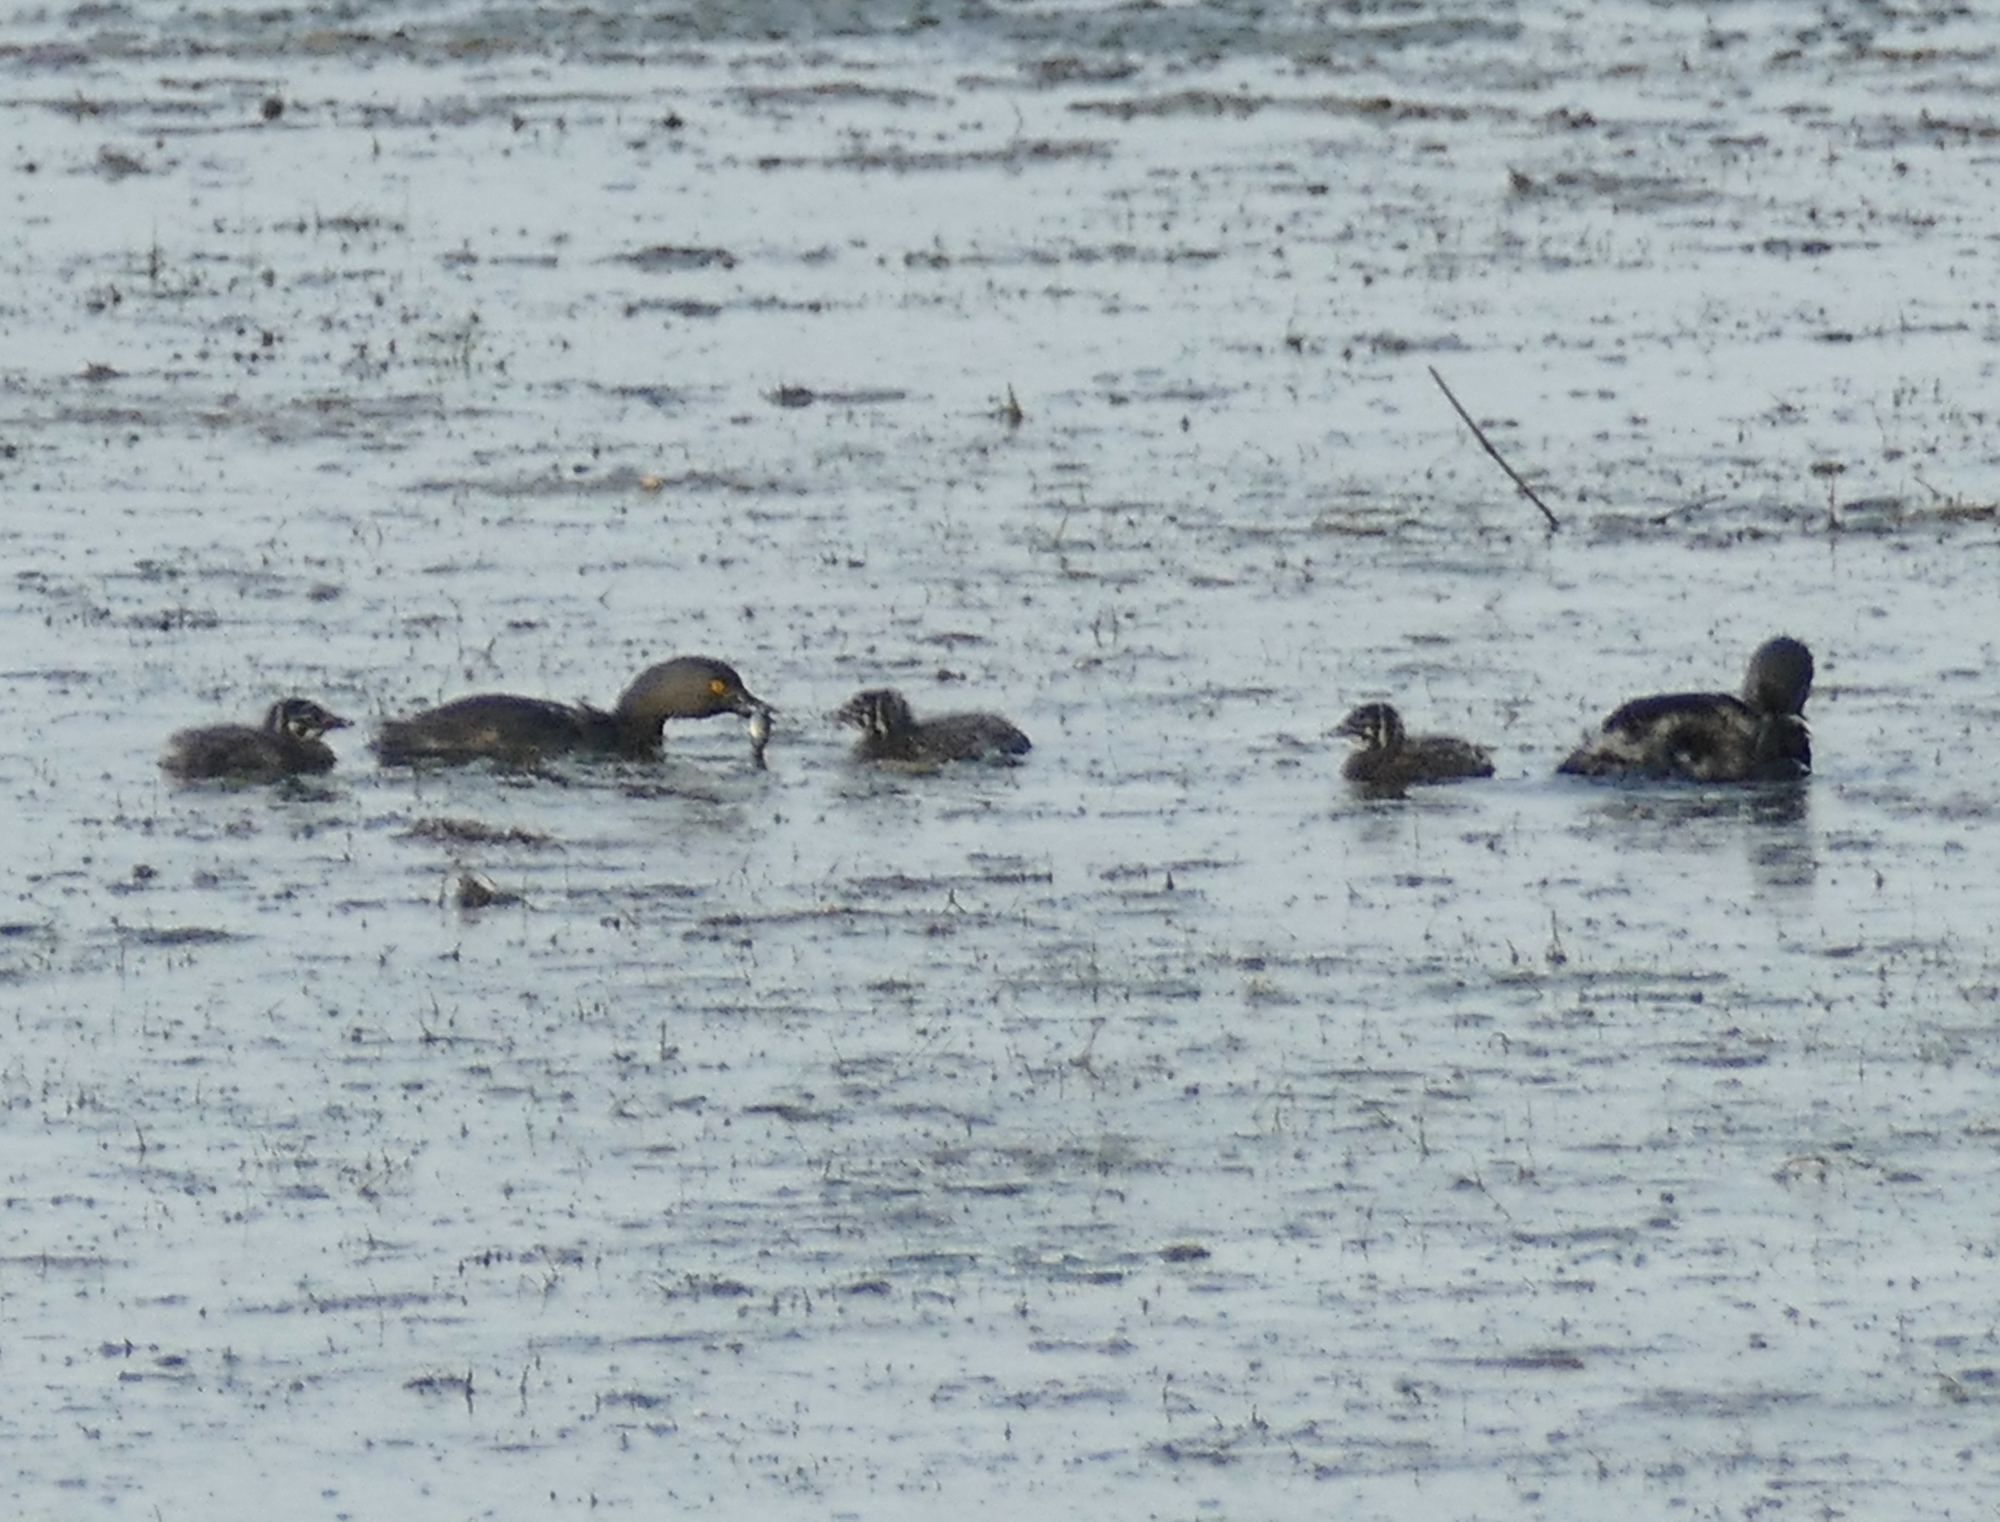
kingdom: Animalia
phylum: Chordata
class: Aves
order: Podicipediformes
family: Podicipedidae
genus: Tachybaptus
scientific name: Tachybaptus dominicus
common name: Least grebe
